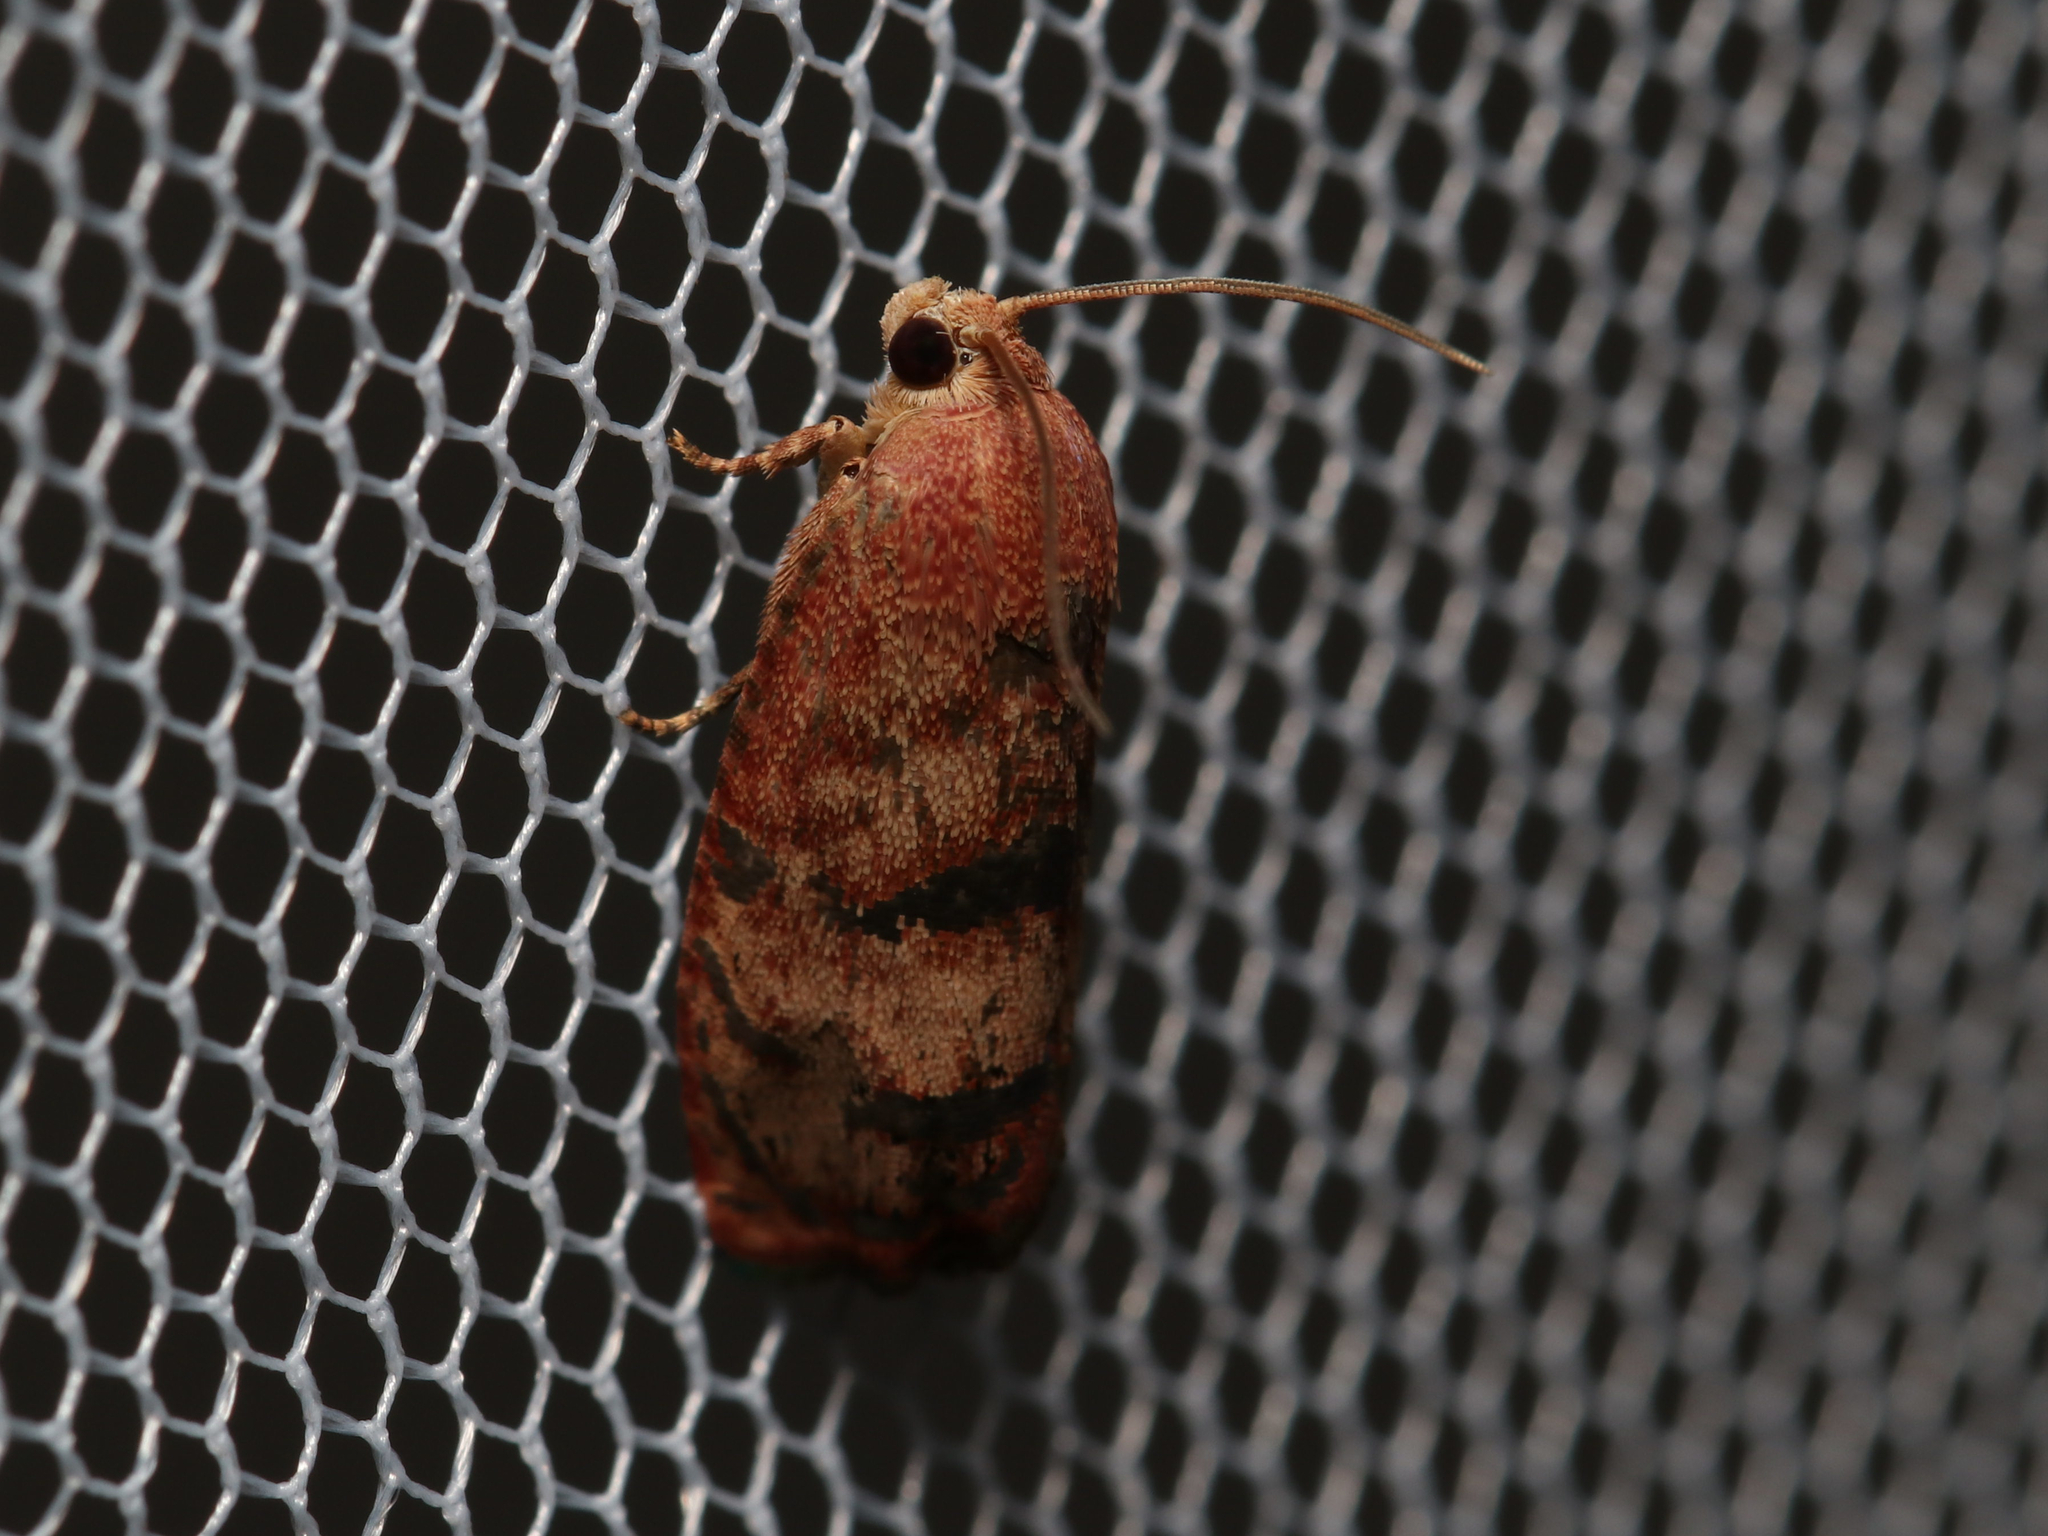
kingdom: Animalia
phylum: Arthropoda
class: Insecta
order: Lepidoptera
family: Tortricidae
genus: Cydia
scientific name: Cydia latiferreana
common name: Filbertworm moth
